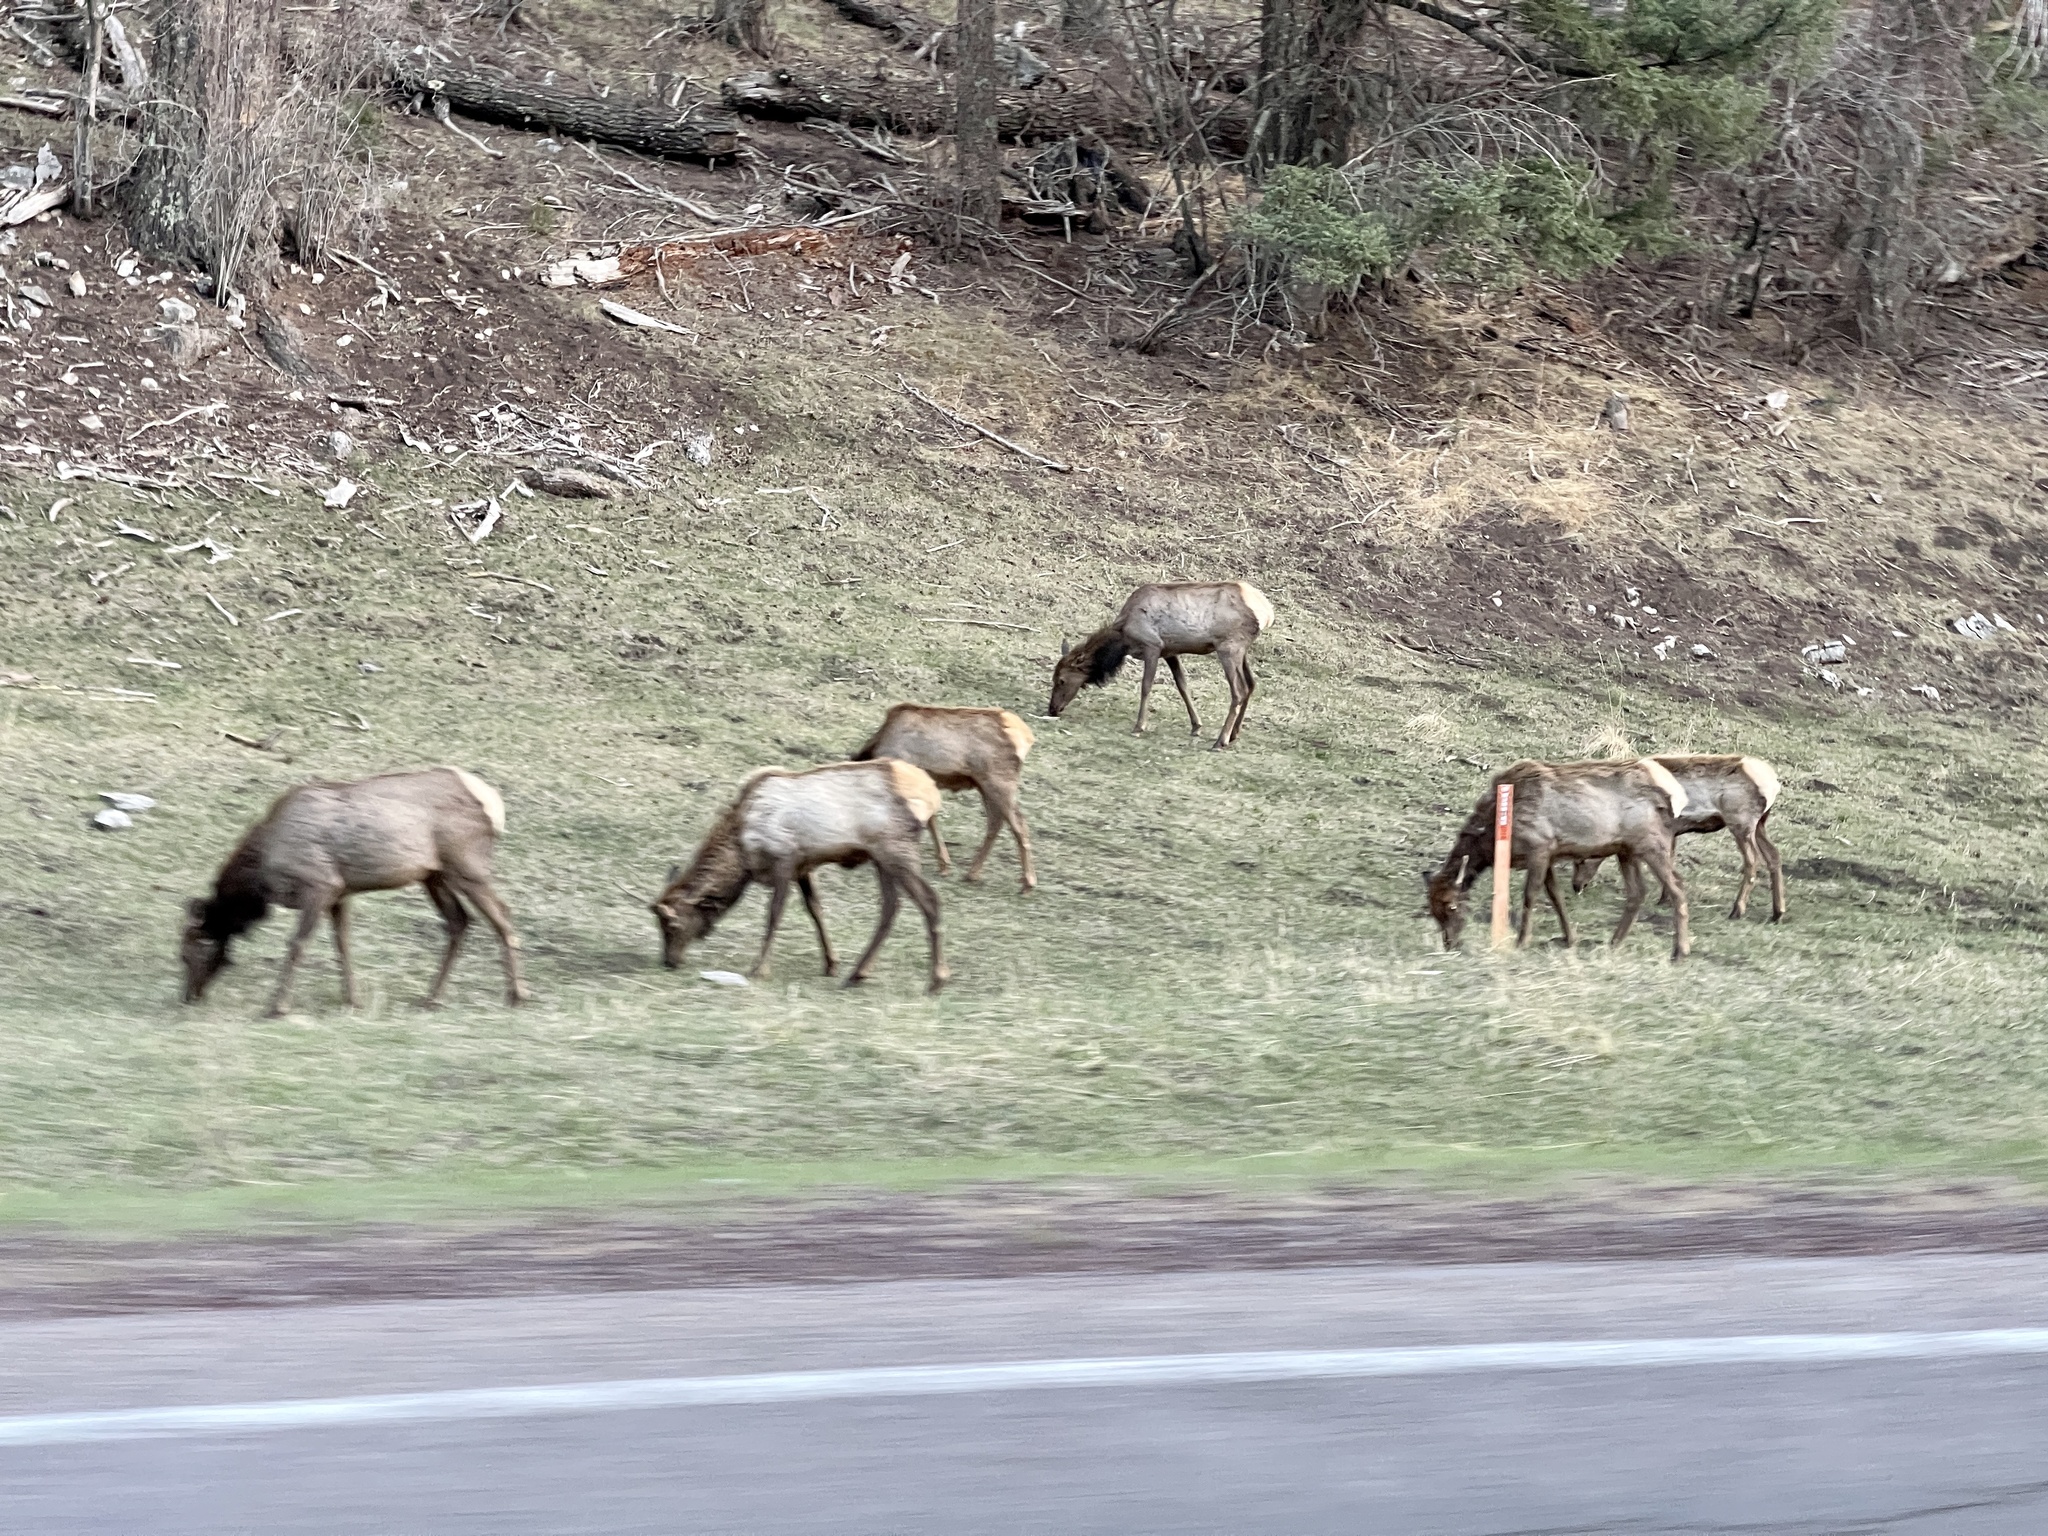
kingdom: Animalia
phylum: Chordata
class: Mammalia
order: Artiodactyla
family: Cervidae
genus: Cervus
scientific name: Cervus elaphus
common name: Red deer
